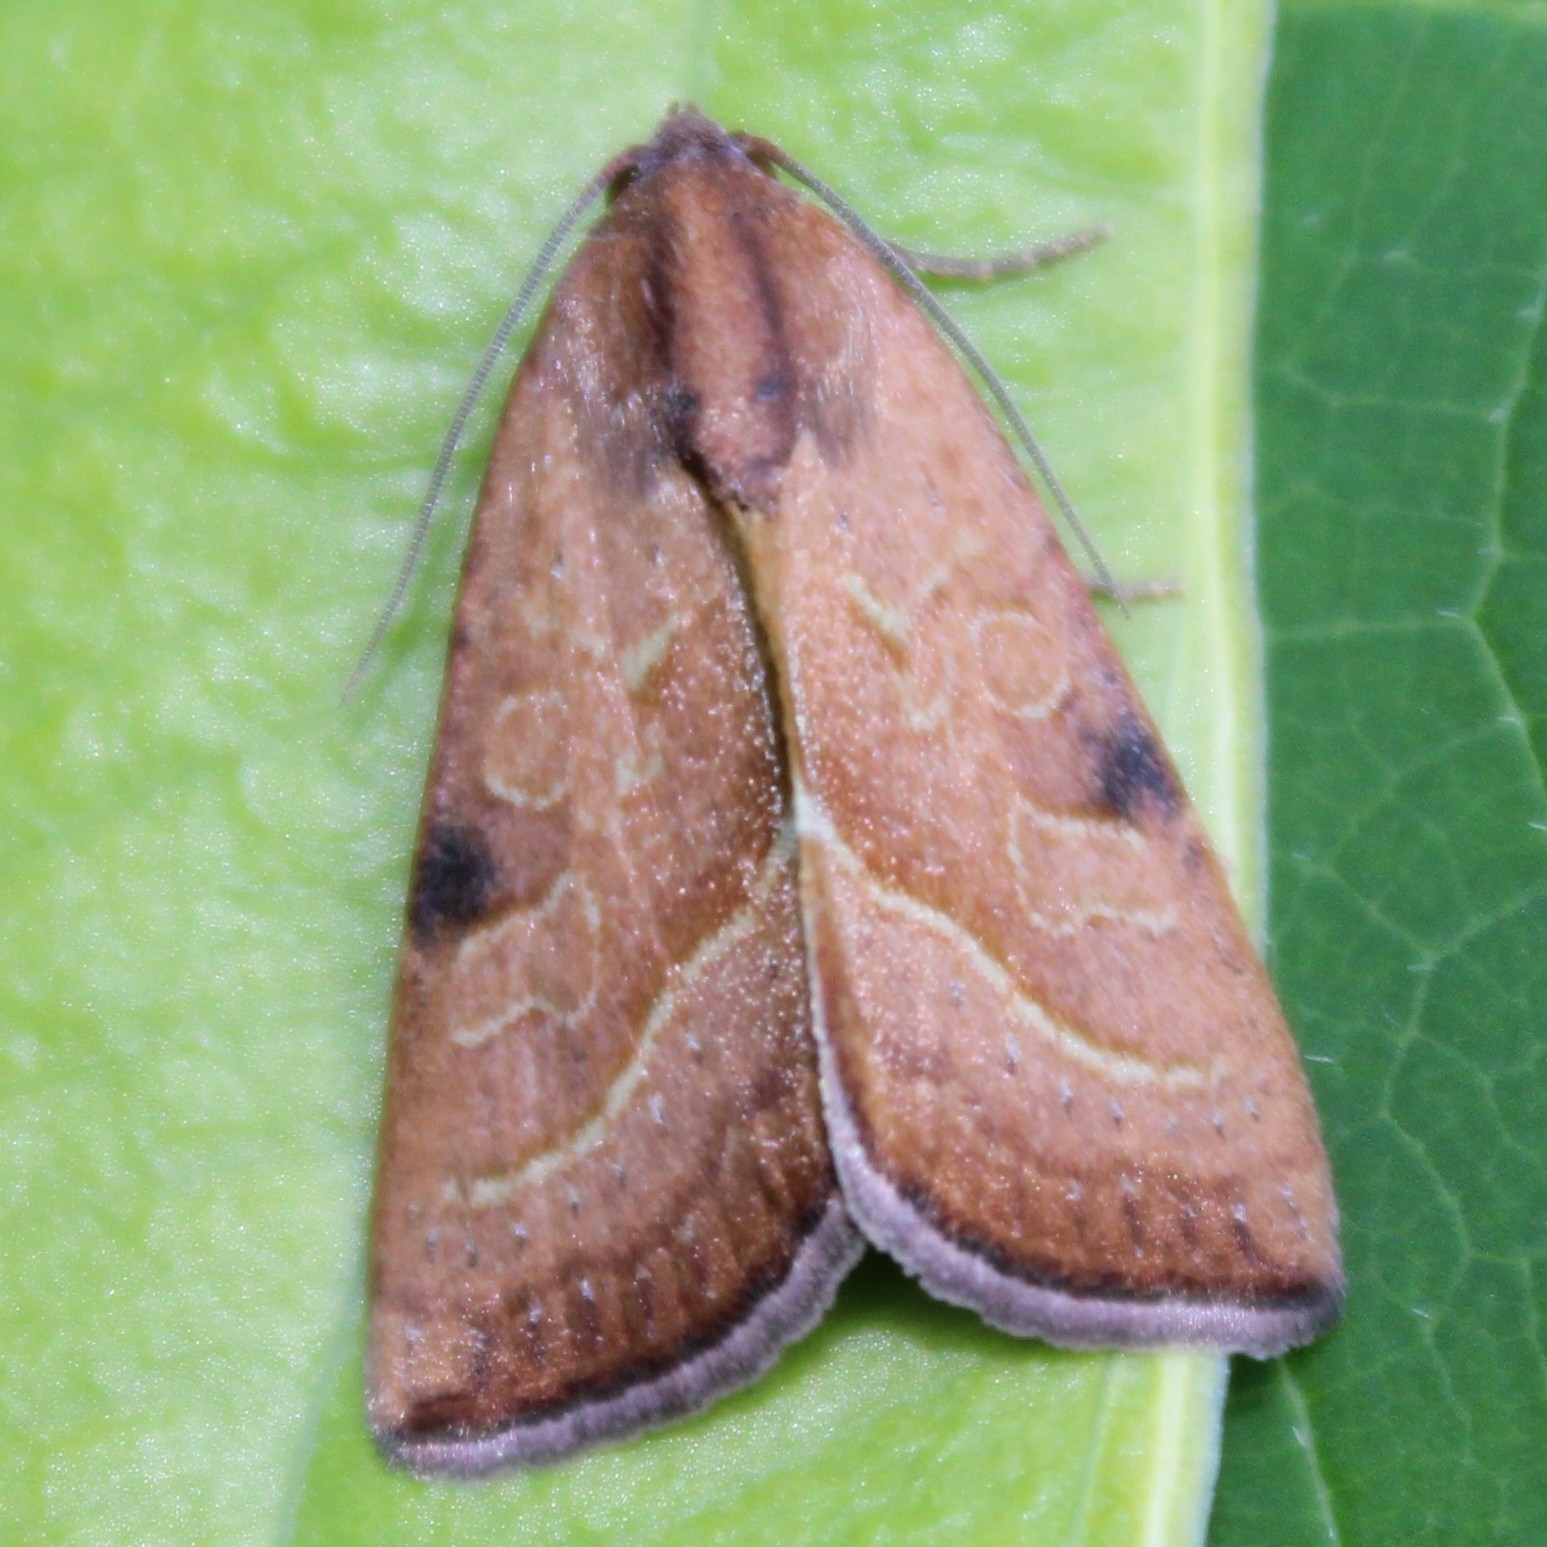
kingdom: Animalia
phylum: Arthropoda
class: Insecta
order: Lepidoptera
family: Noctuidae
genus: Galgula
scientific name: Galgula partita
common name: Wedgeling
